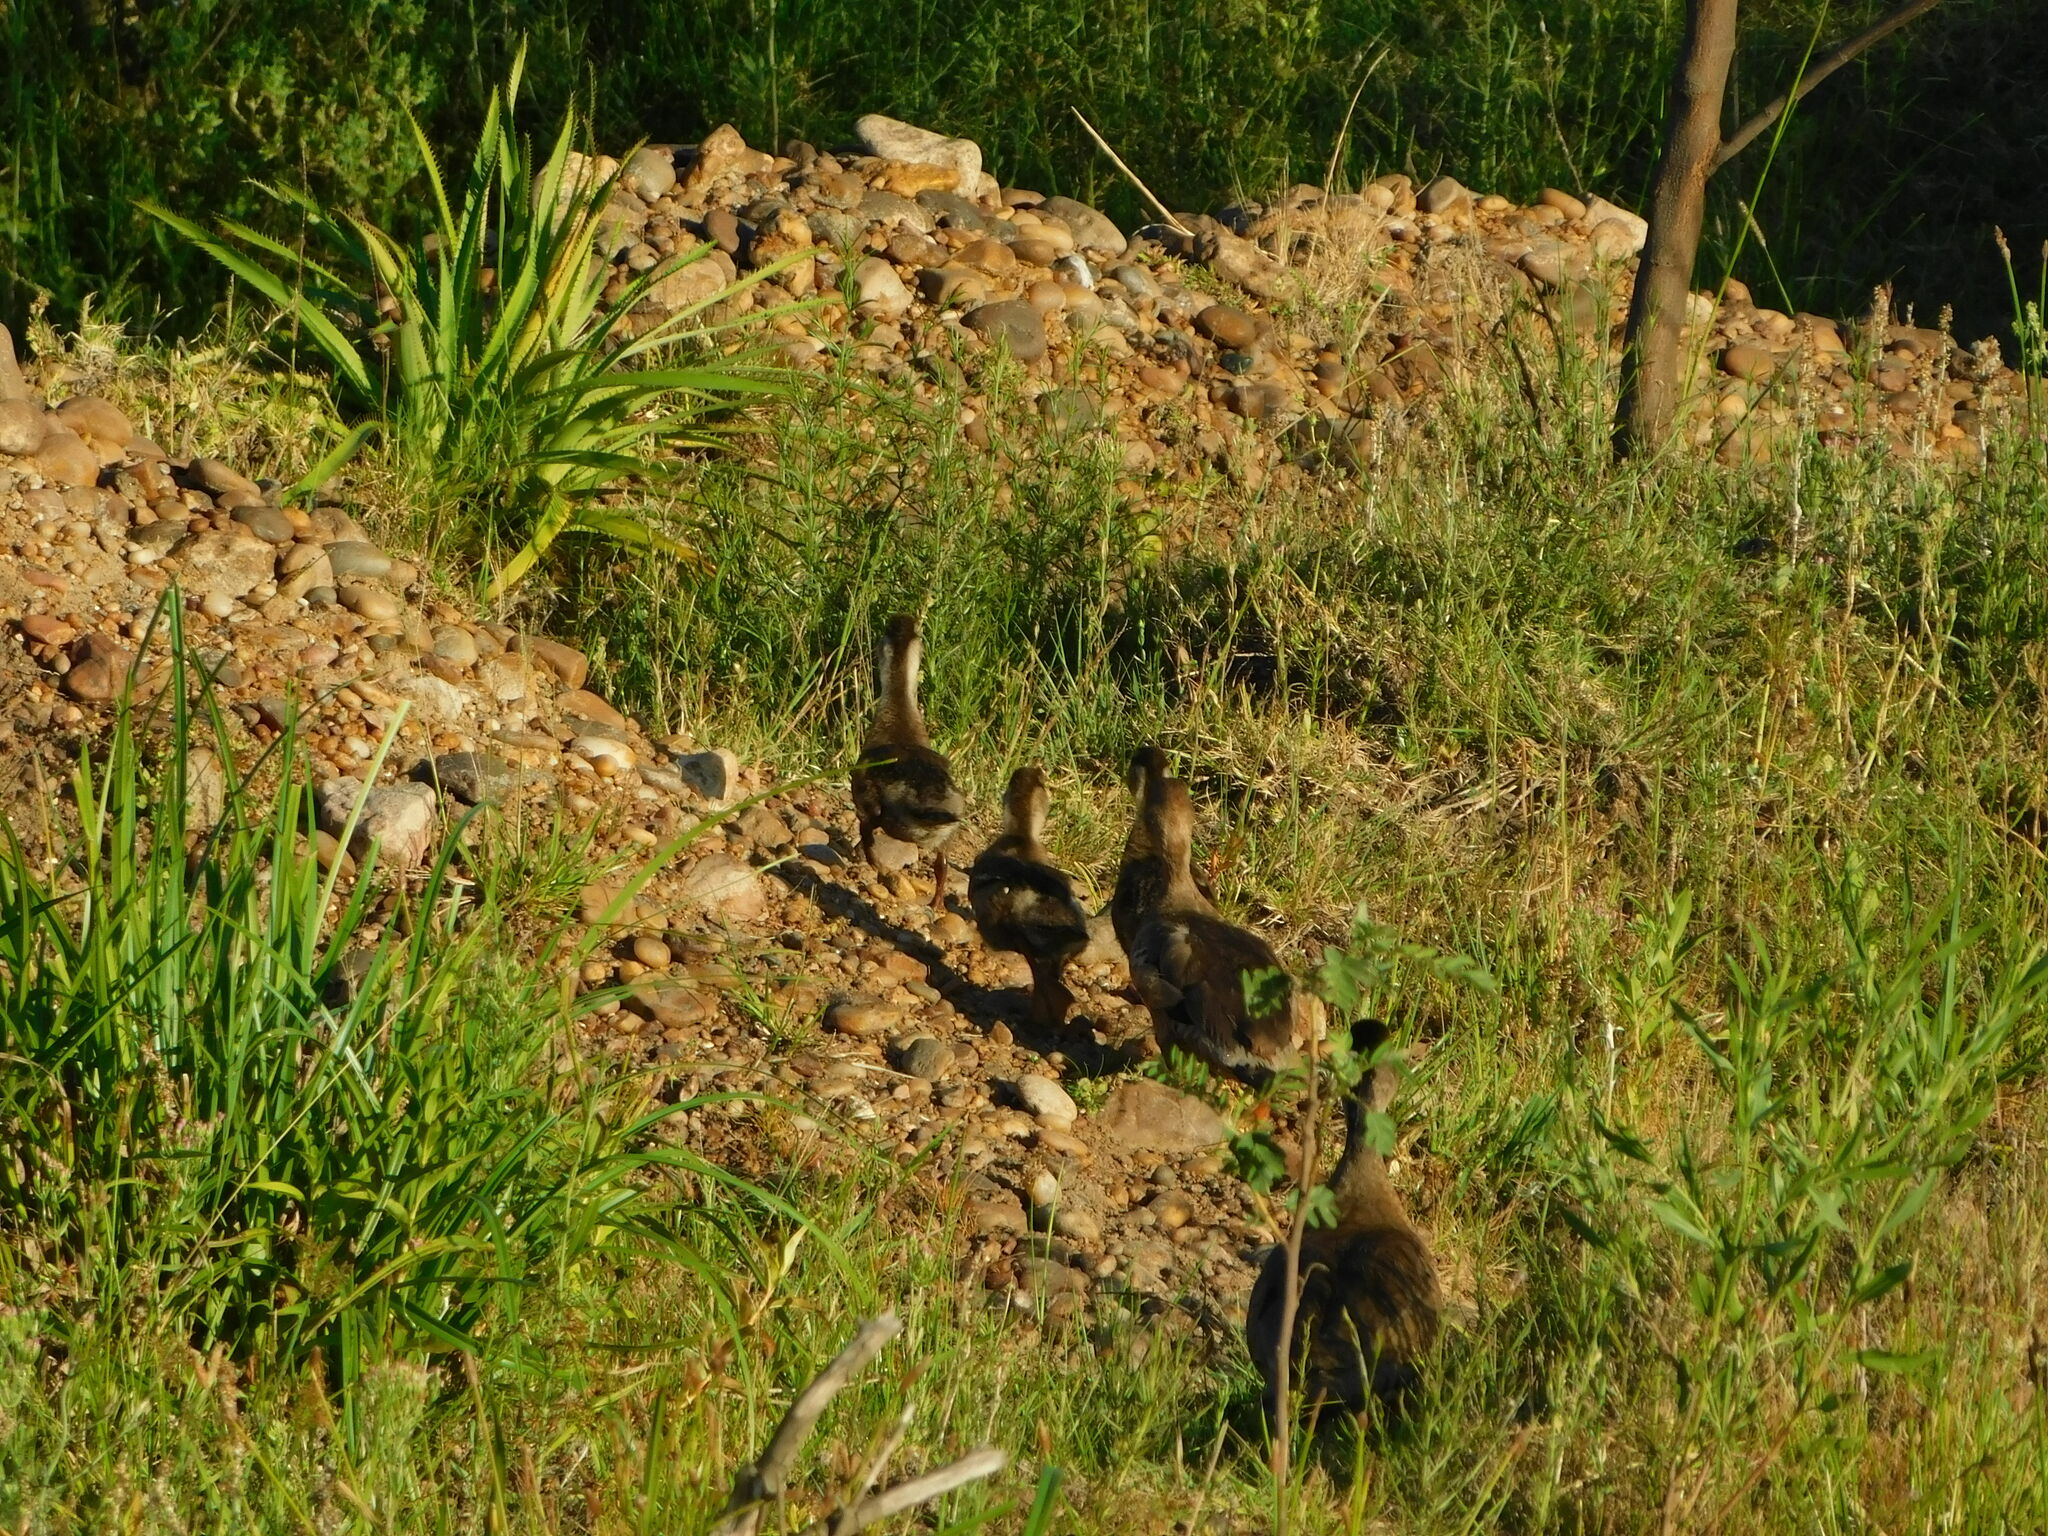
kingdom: Animalia
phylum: Chordata
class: Aves
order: Anseriformes
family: Anatidae
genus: Amazonetta
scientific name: Amazonetta brasiliensis
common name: Brazilian teal
